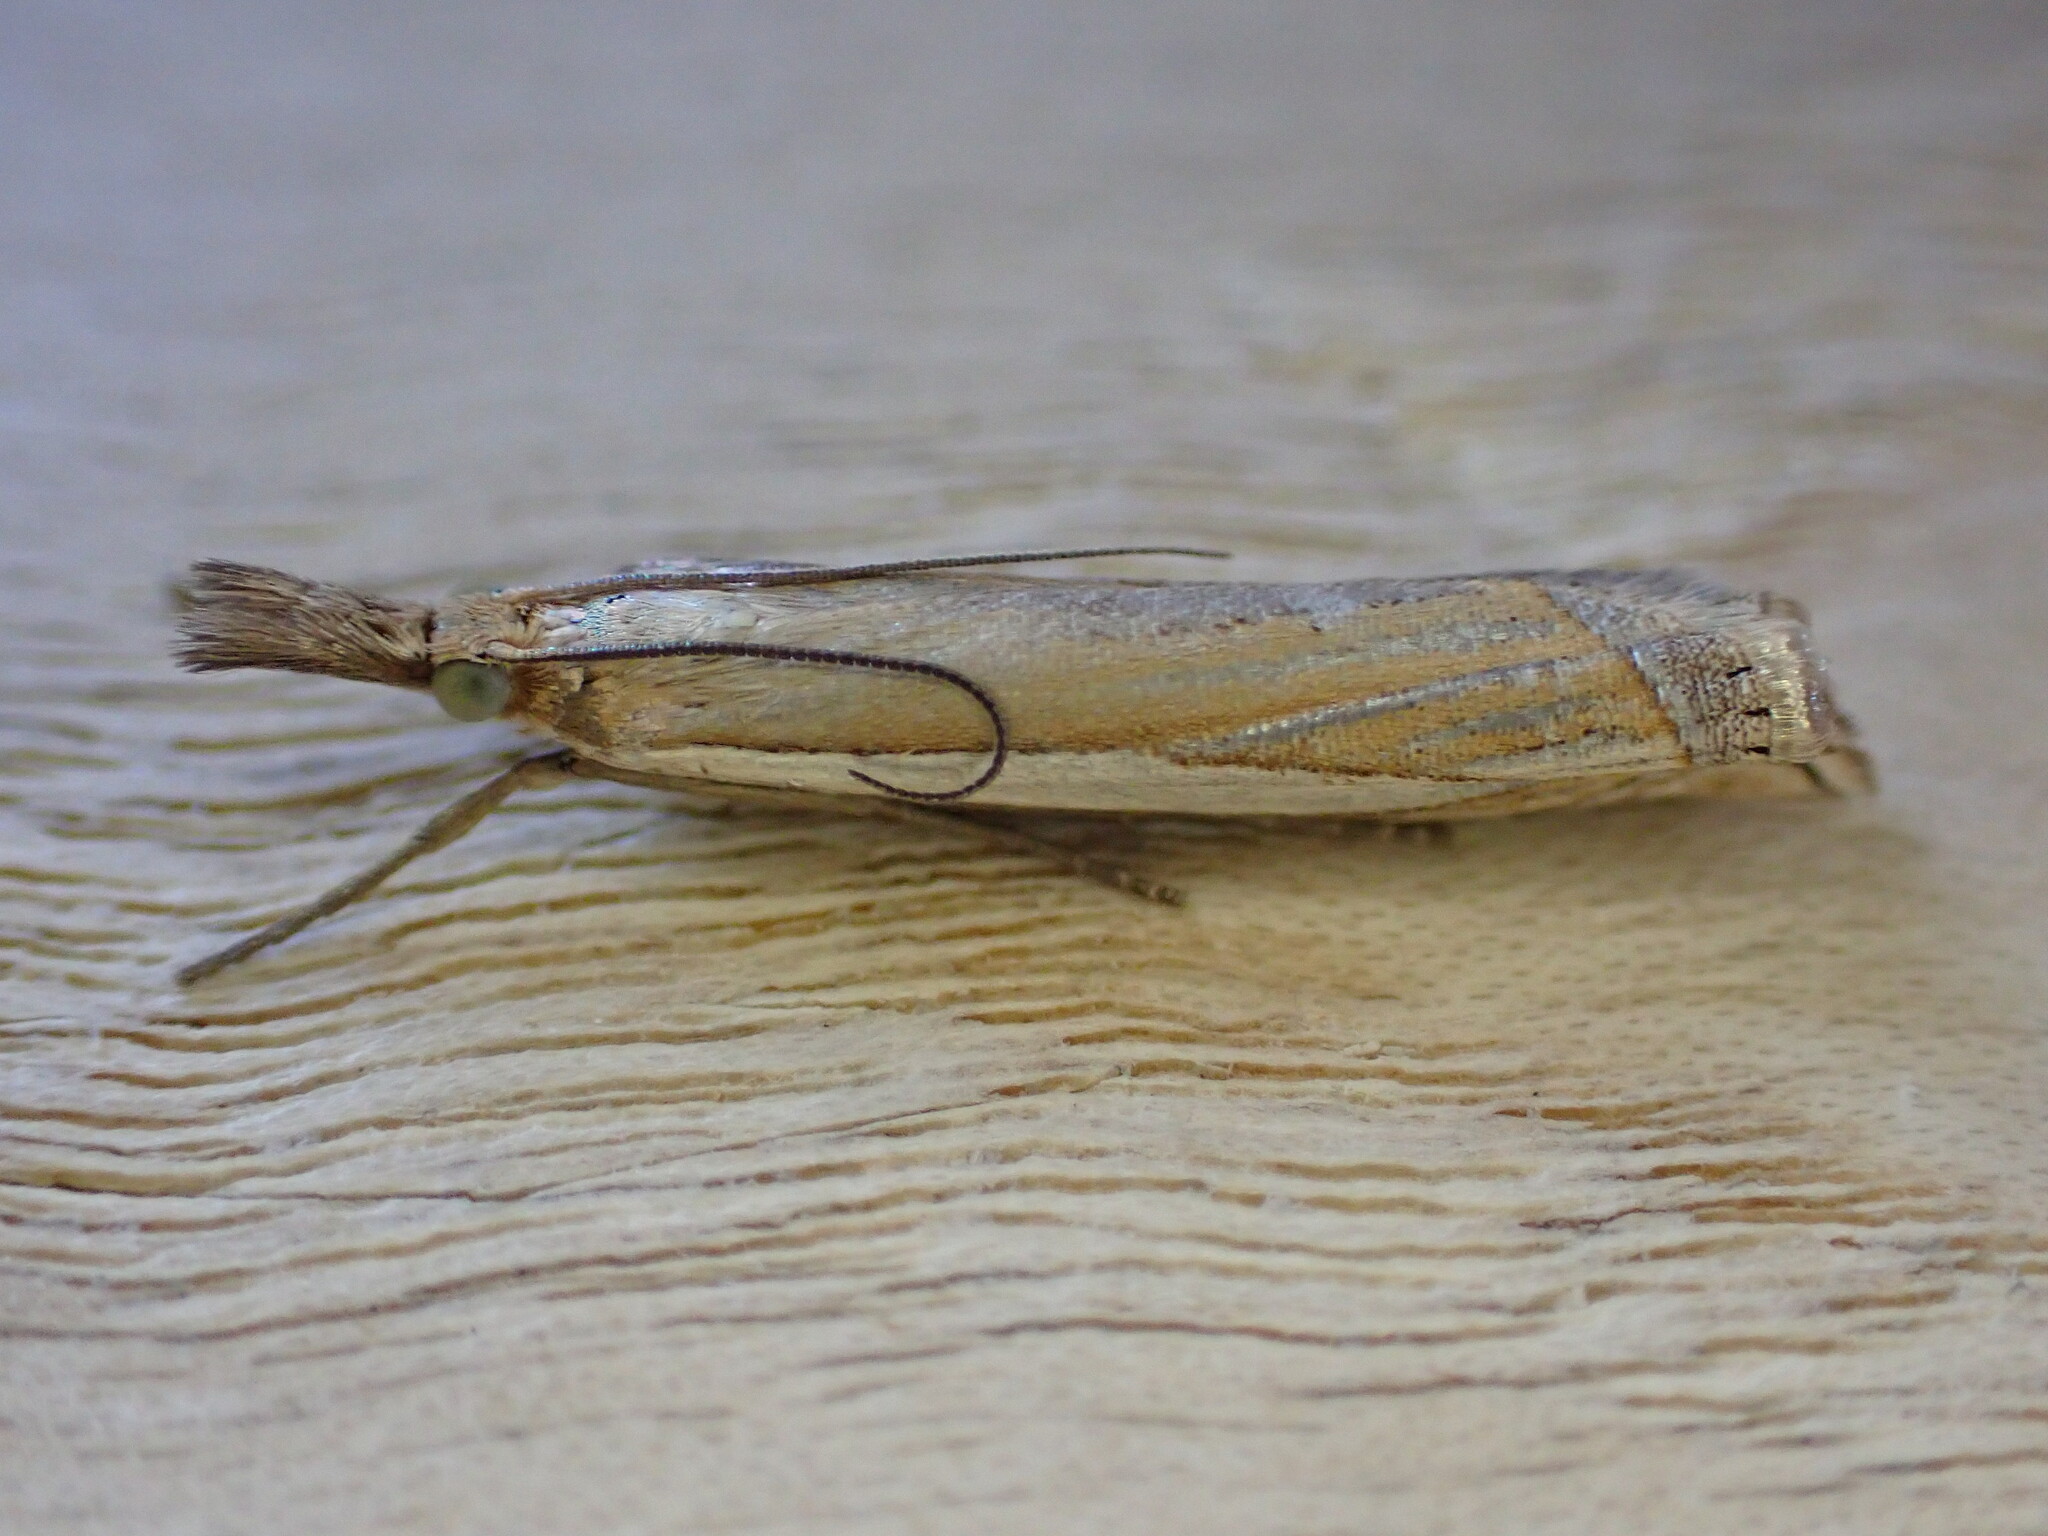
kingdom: Animalia
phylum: Arthropoda
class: Insecta
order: Lepidoptera
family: Crambidae
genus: Crambus
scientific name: Crambus pascuella
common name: Inlaid grass-veneer
